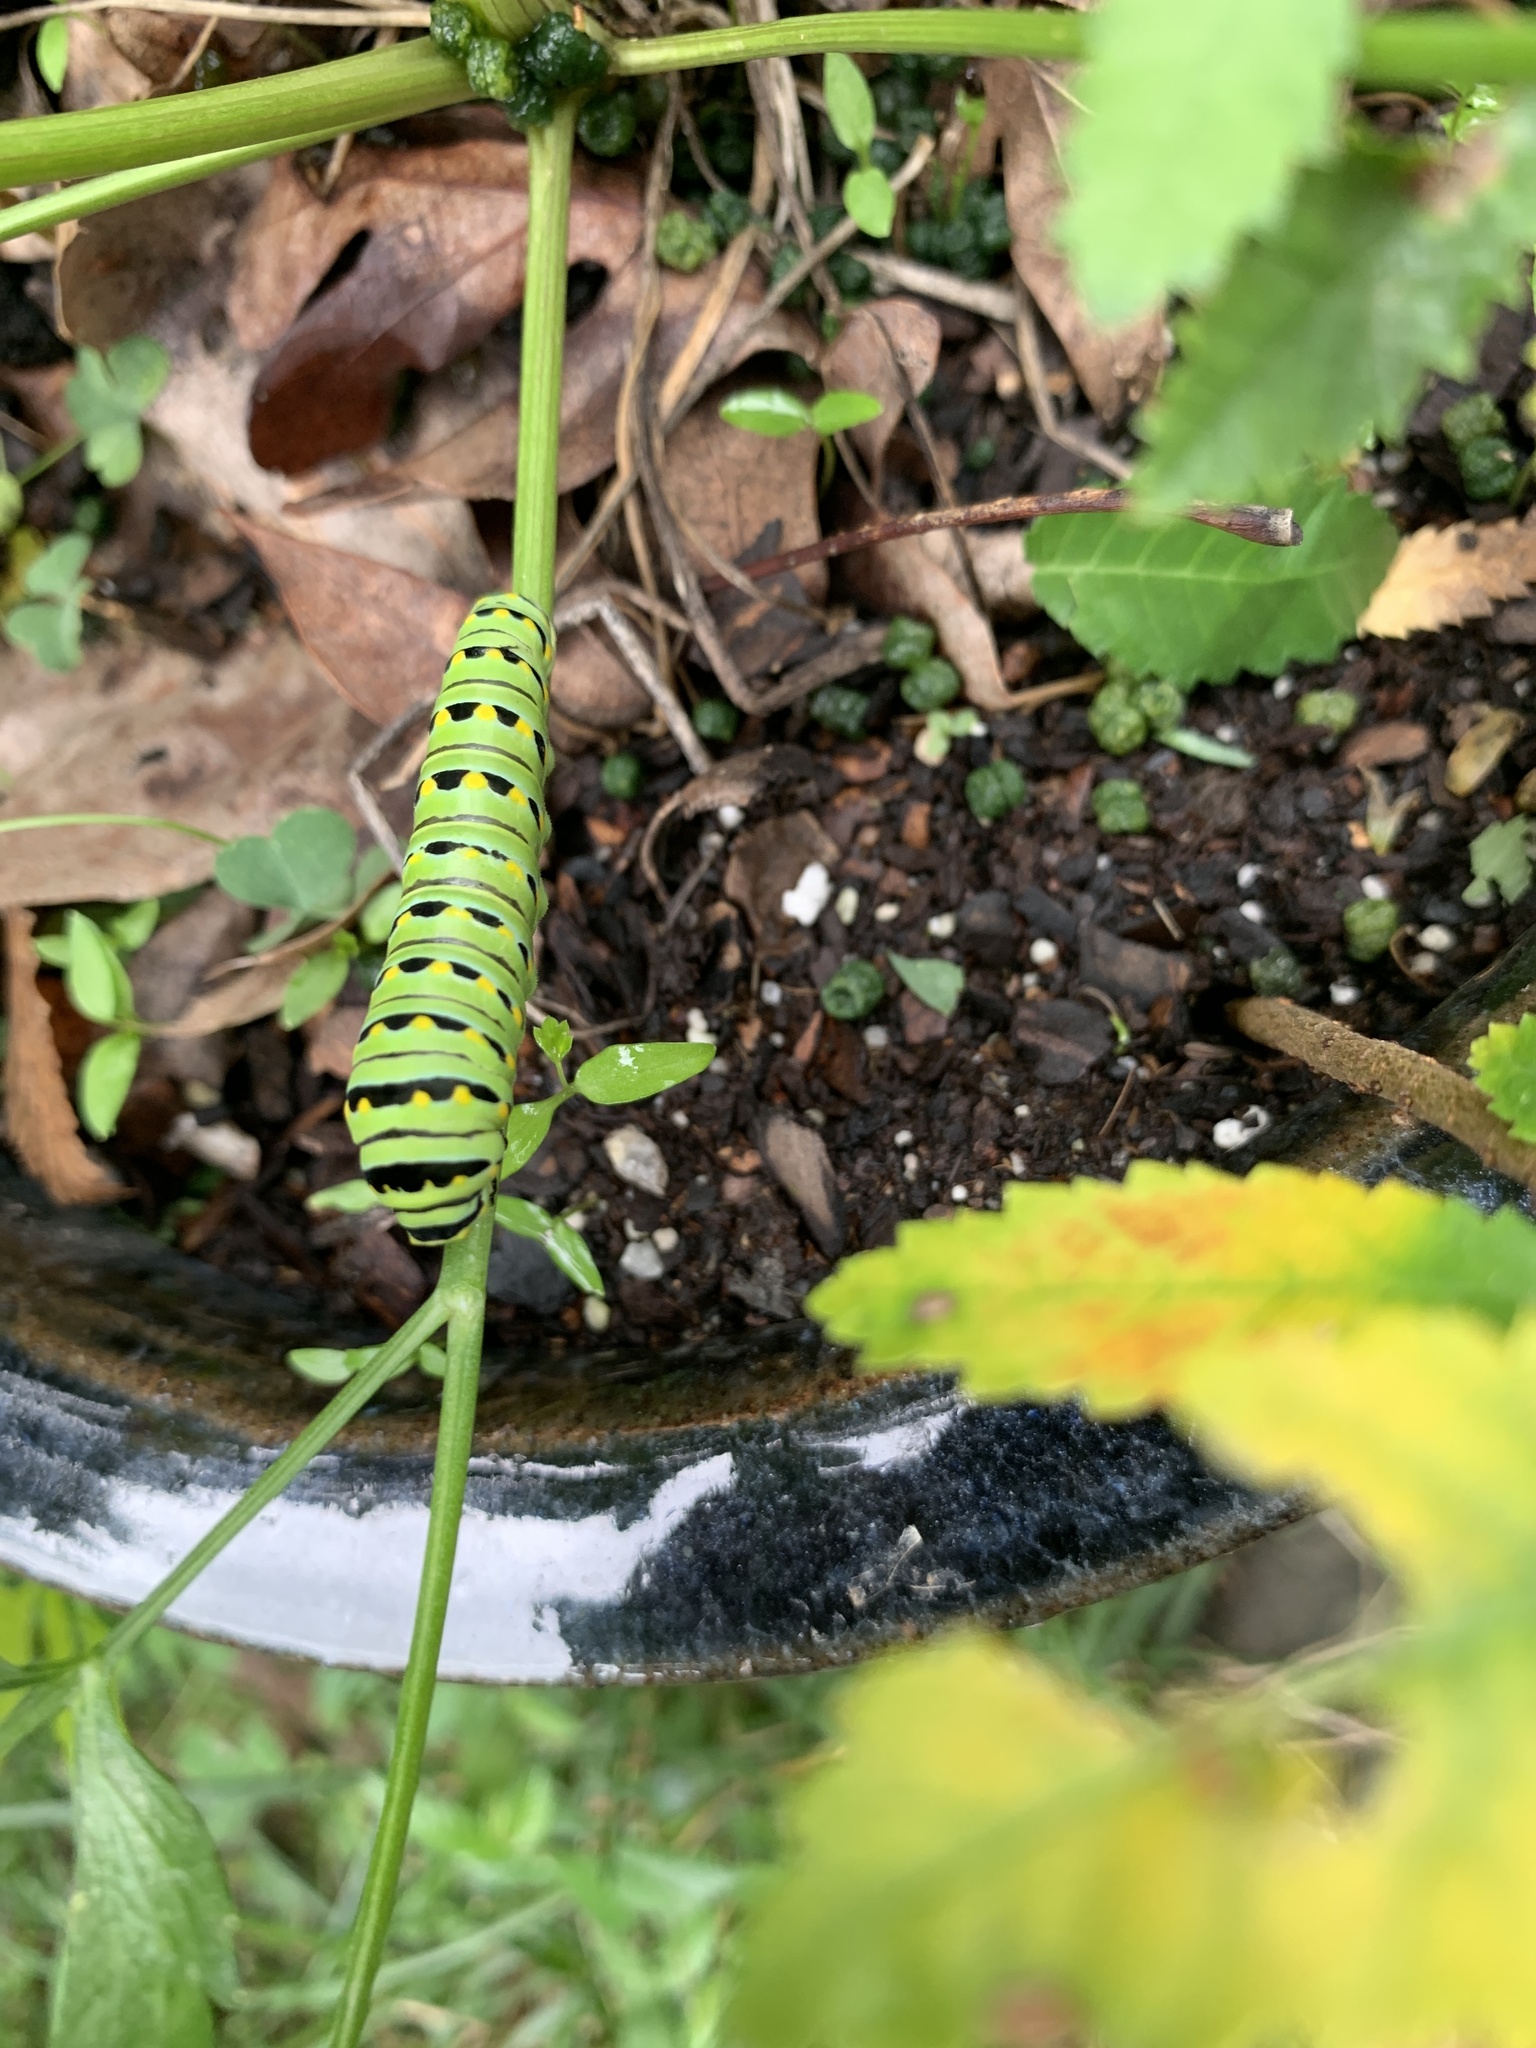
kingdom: Animalia
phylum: Arthropoda
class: Insecta
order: Lepidoptera
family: Papilionidae
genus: Papilio
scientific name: Papilio polyxenes
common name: Black swallowtail
